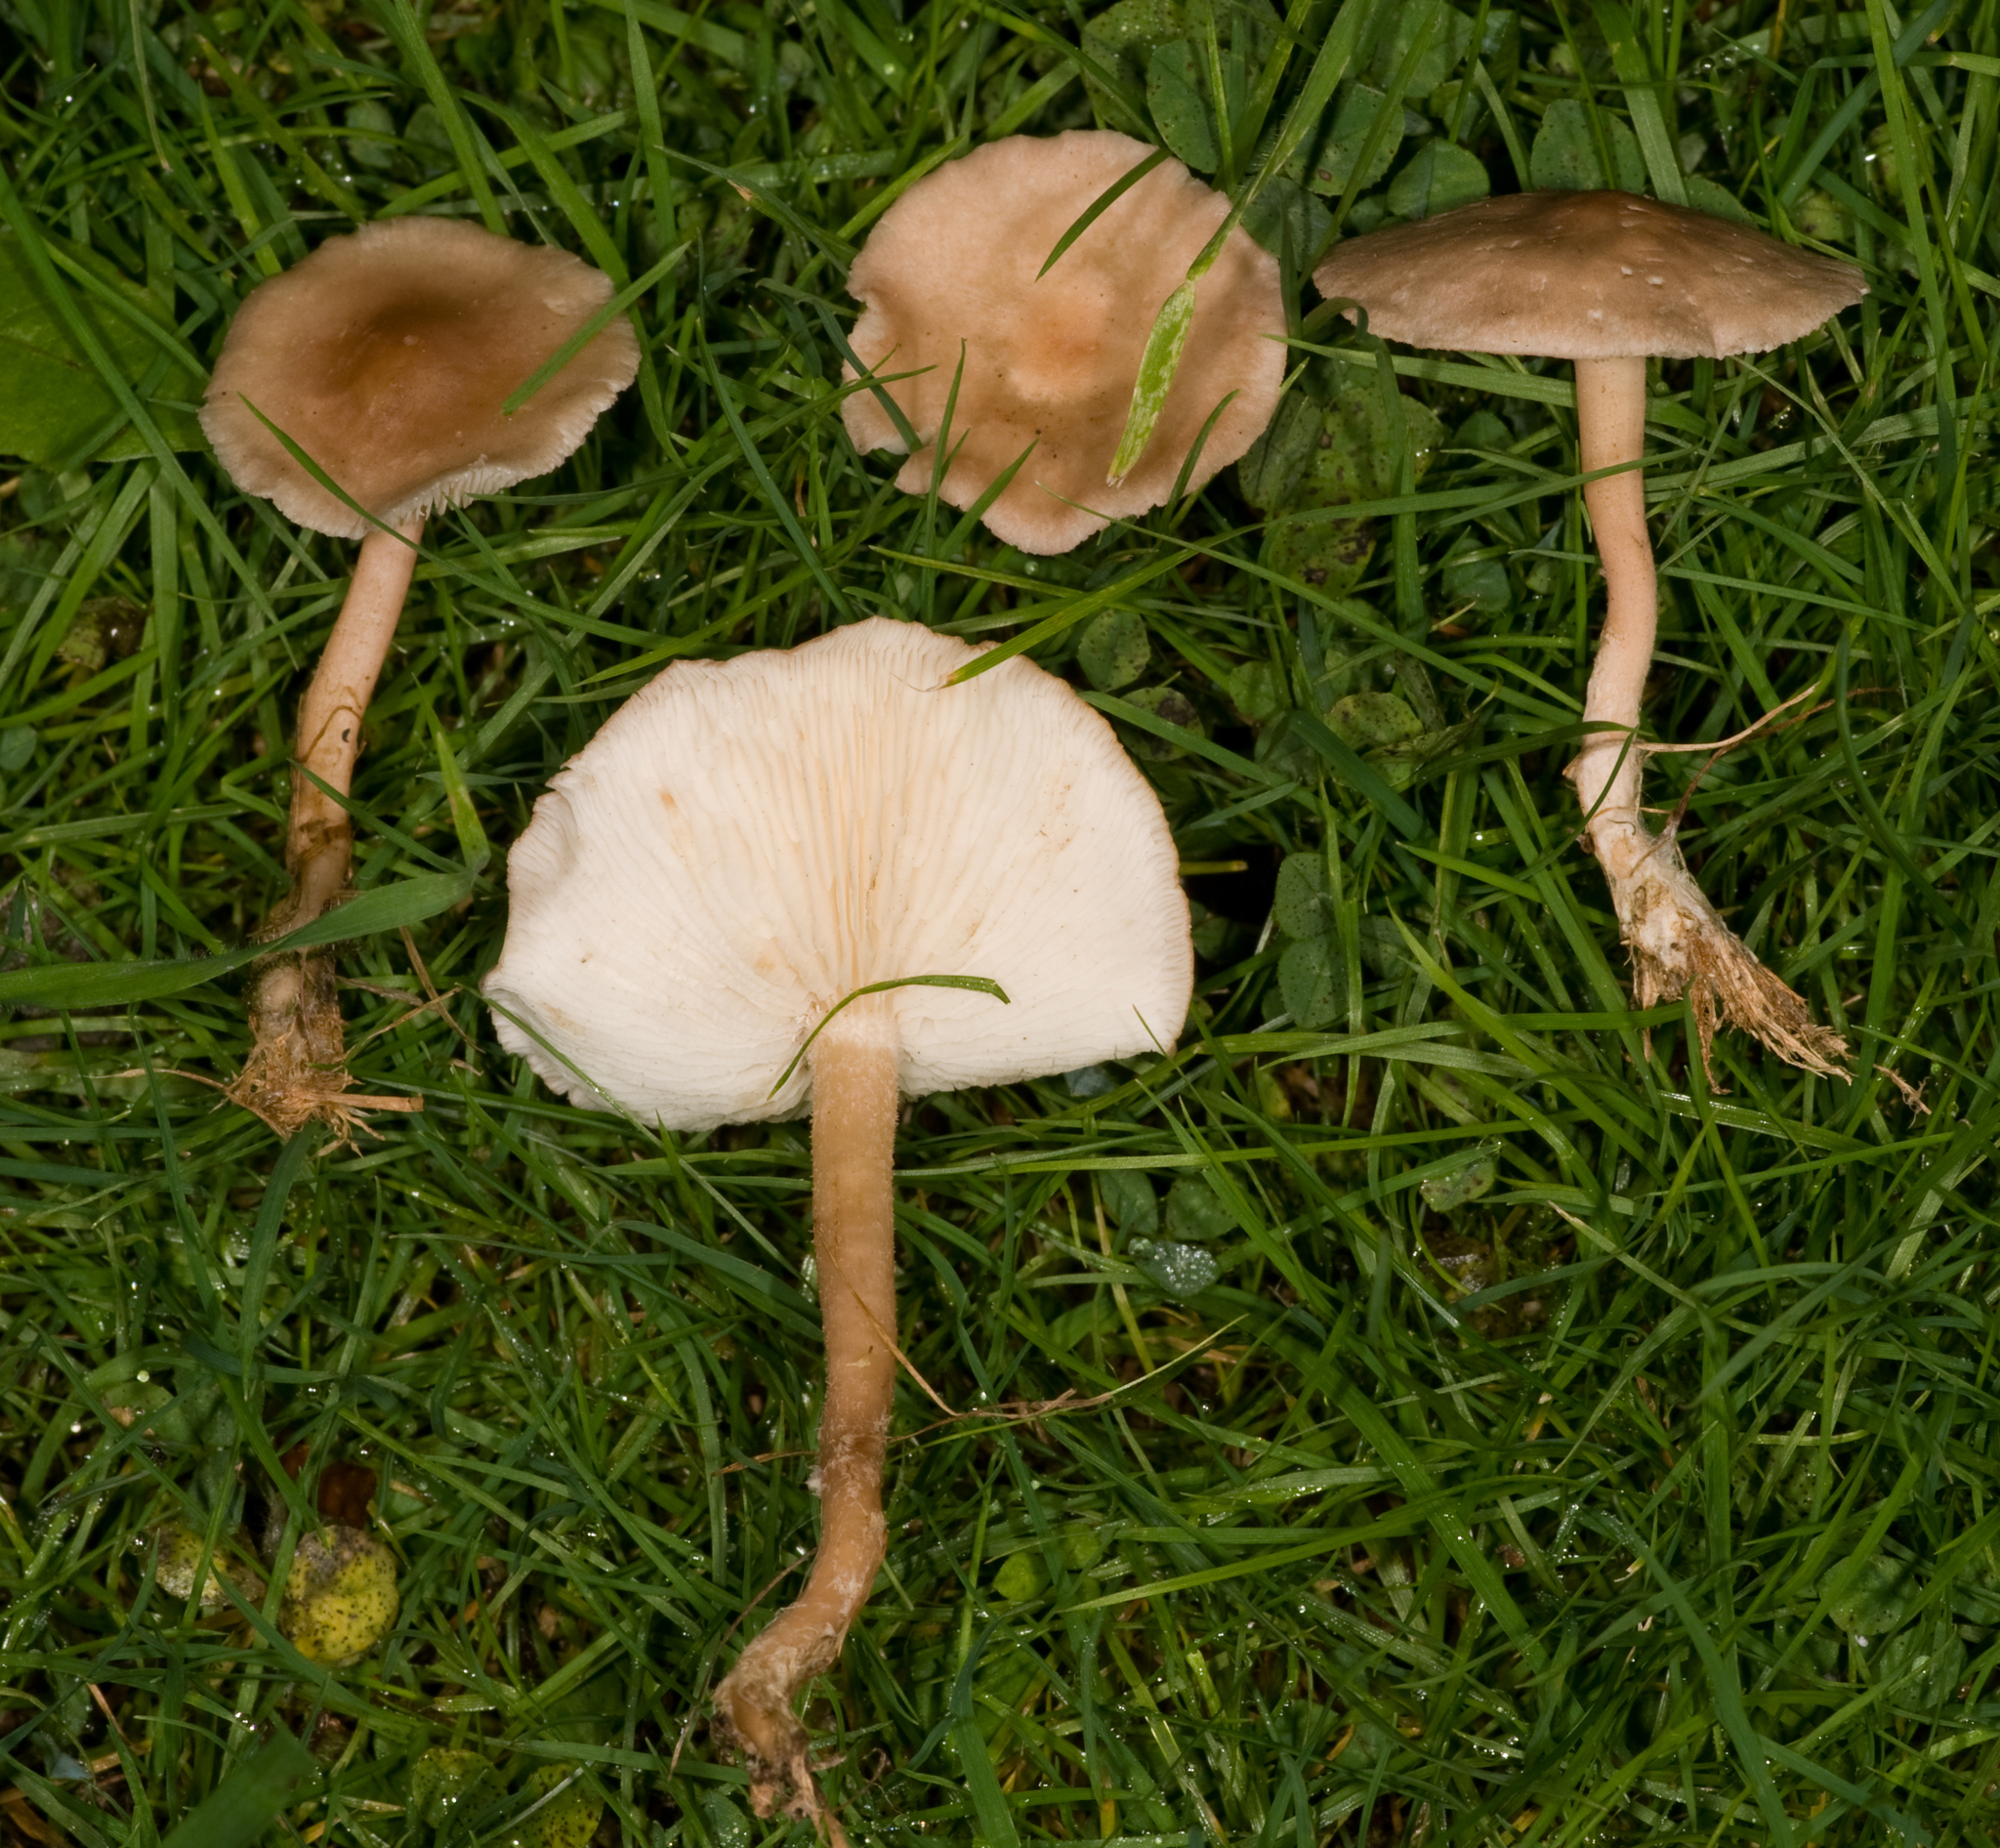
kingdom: Fungi
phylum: Basidiomycota
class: Agaricomycetes
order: Agaricales
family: Lyophyllaceae
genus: Calocybe
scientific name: Calocybe carnea
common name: Pink domecap
